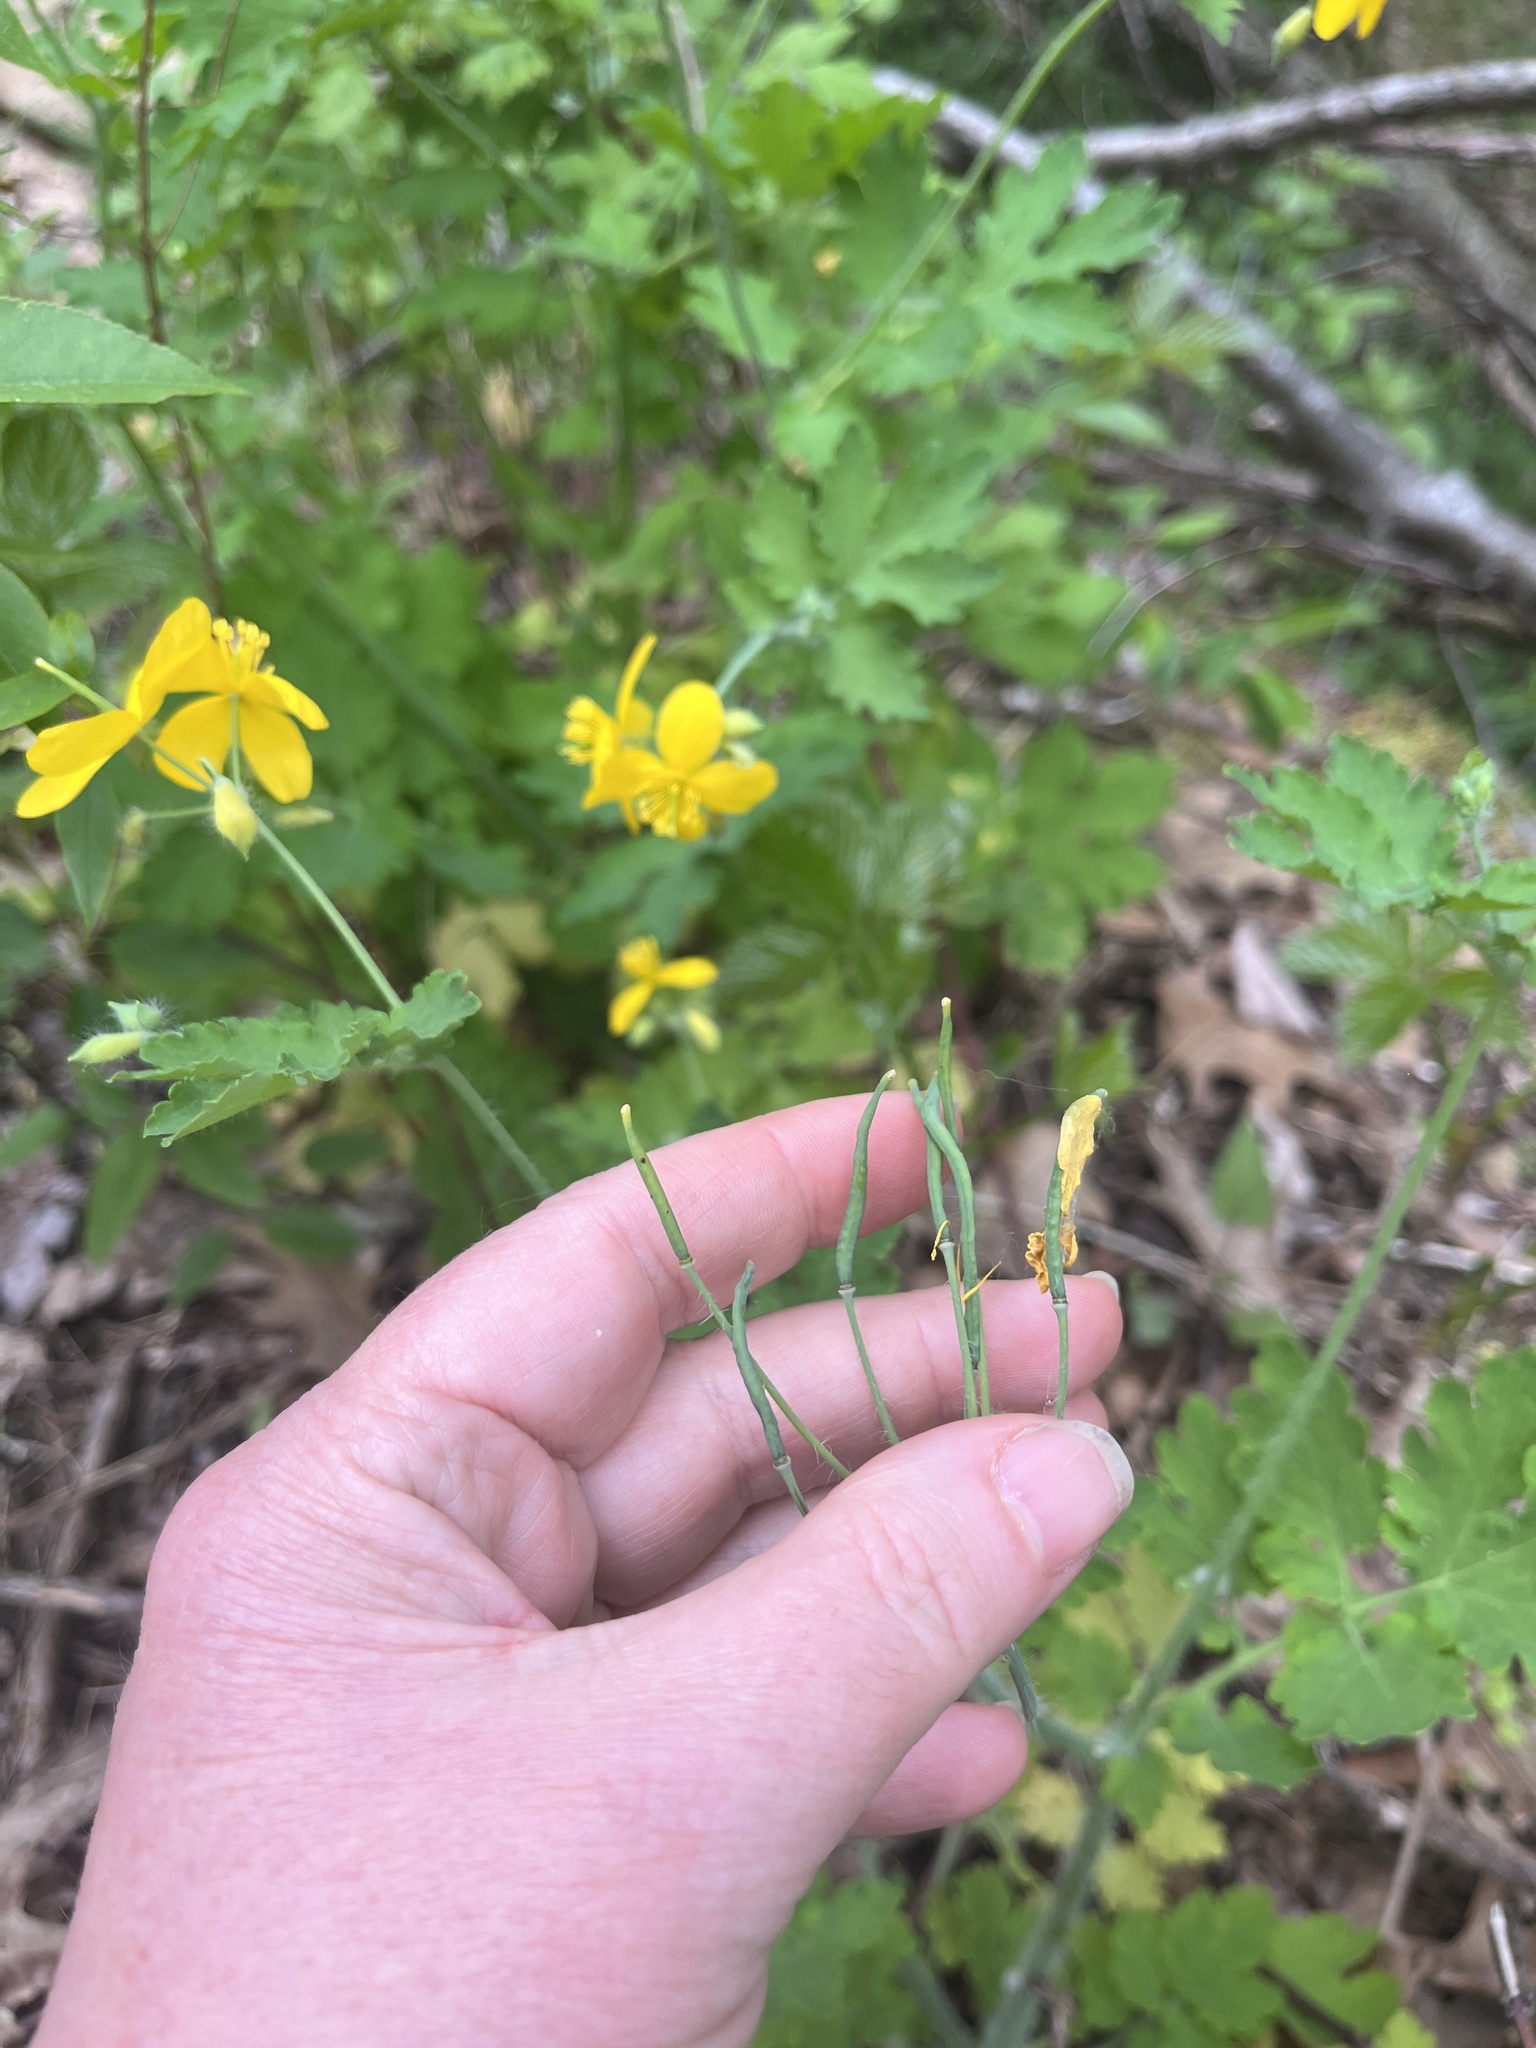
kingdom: Plantae
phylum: Tracheophyta
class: Magnoliopsida
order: Ranunculales
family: Papaveraceae
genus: Chelidonium
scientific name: Chelidonium majus
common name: Greater celandine
